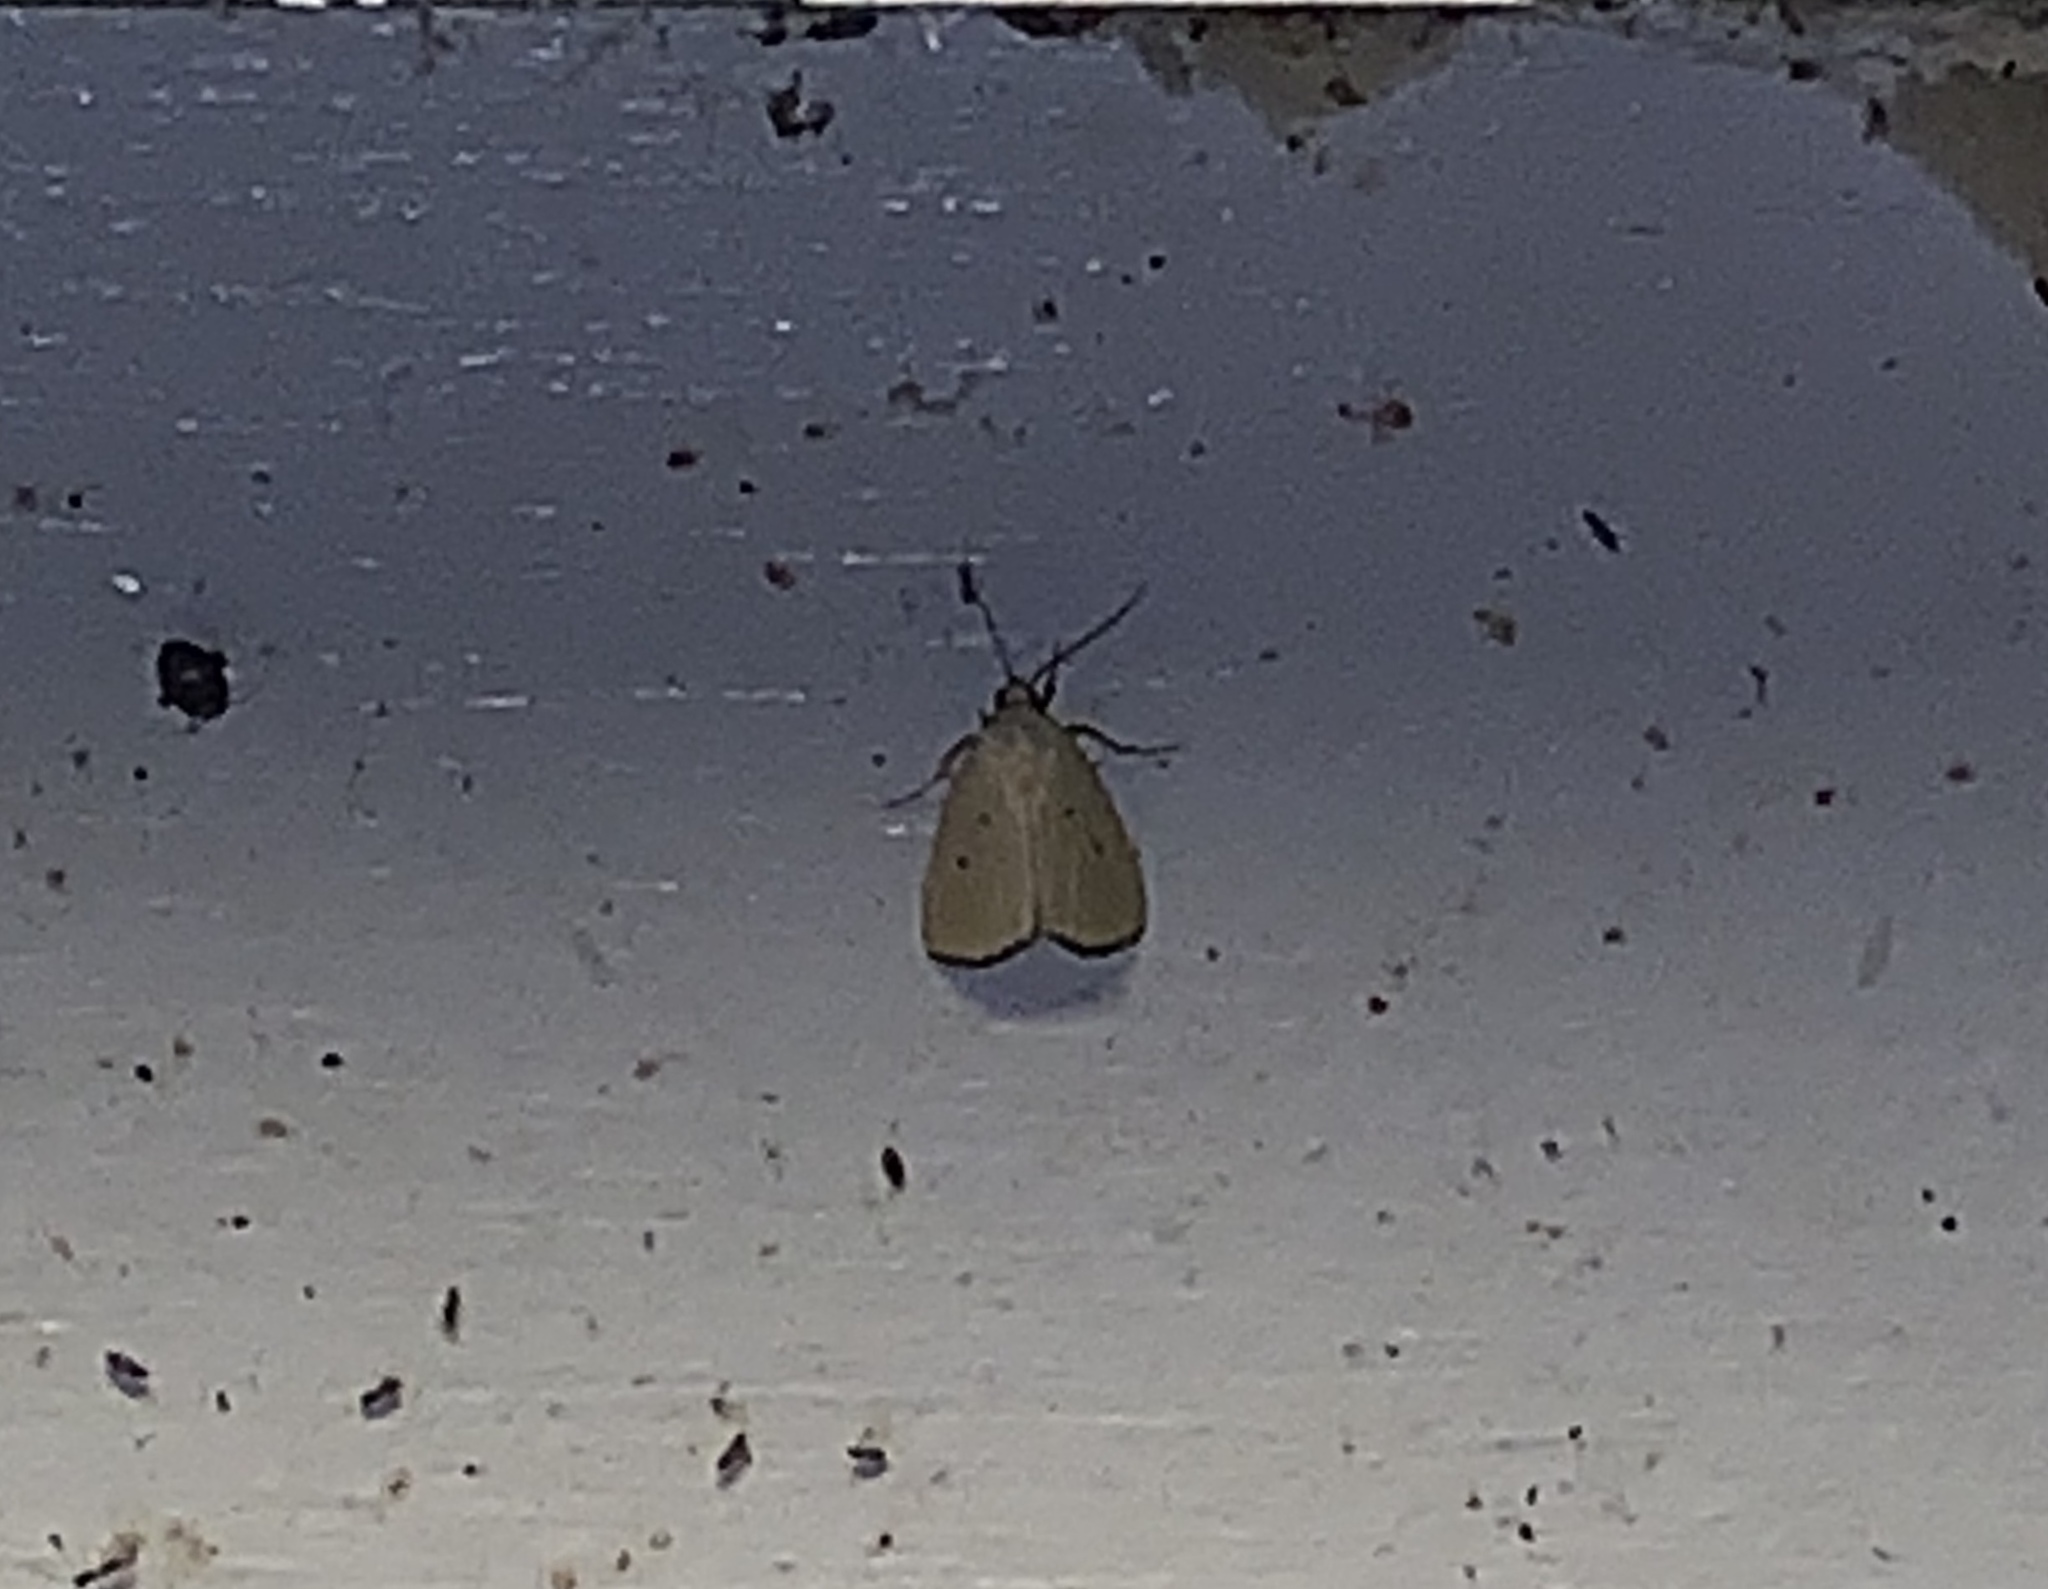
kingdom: Animalia
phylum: Arthropoda
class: Insecta
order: Lepidoptera
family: Noctuidae
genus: Marimatha
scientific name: Marimatha nigrofimbria
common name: Black-bordered lemon moth
